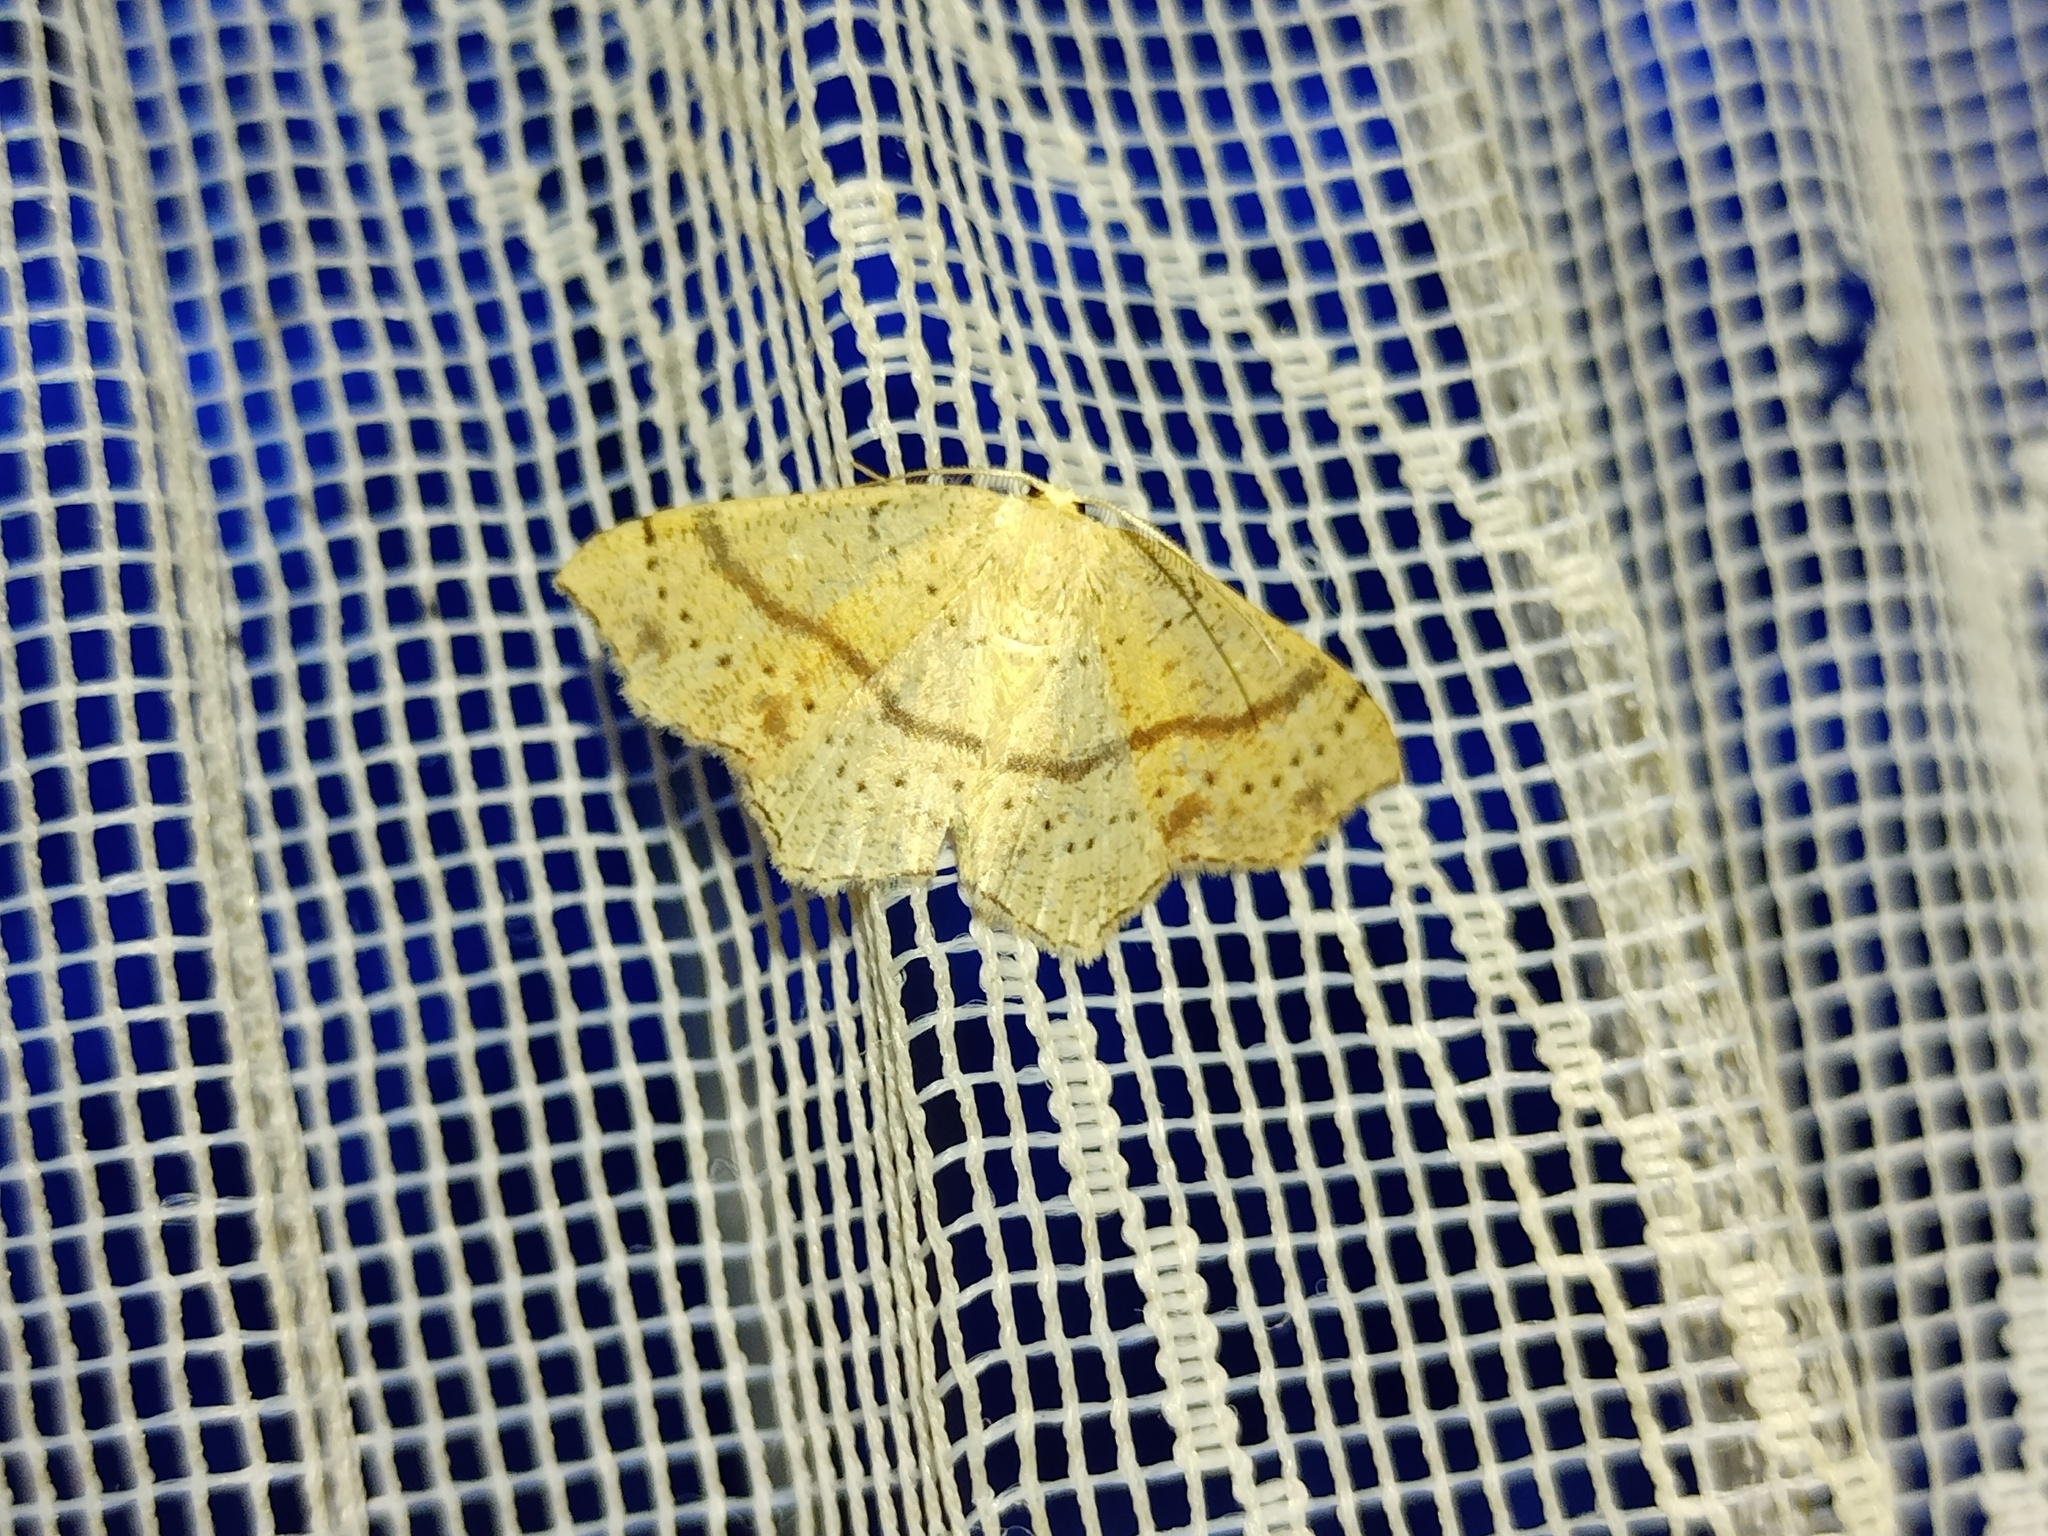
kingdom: Animalia
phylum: Arthropoda
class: Insecta
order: Lepidoptera
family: Geometridae
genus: Cyclophora
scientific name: Cyclophora punctaria
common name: Maiden's blush
